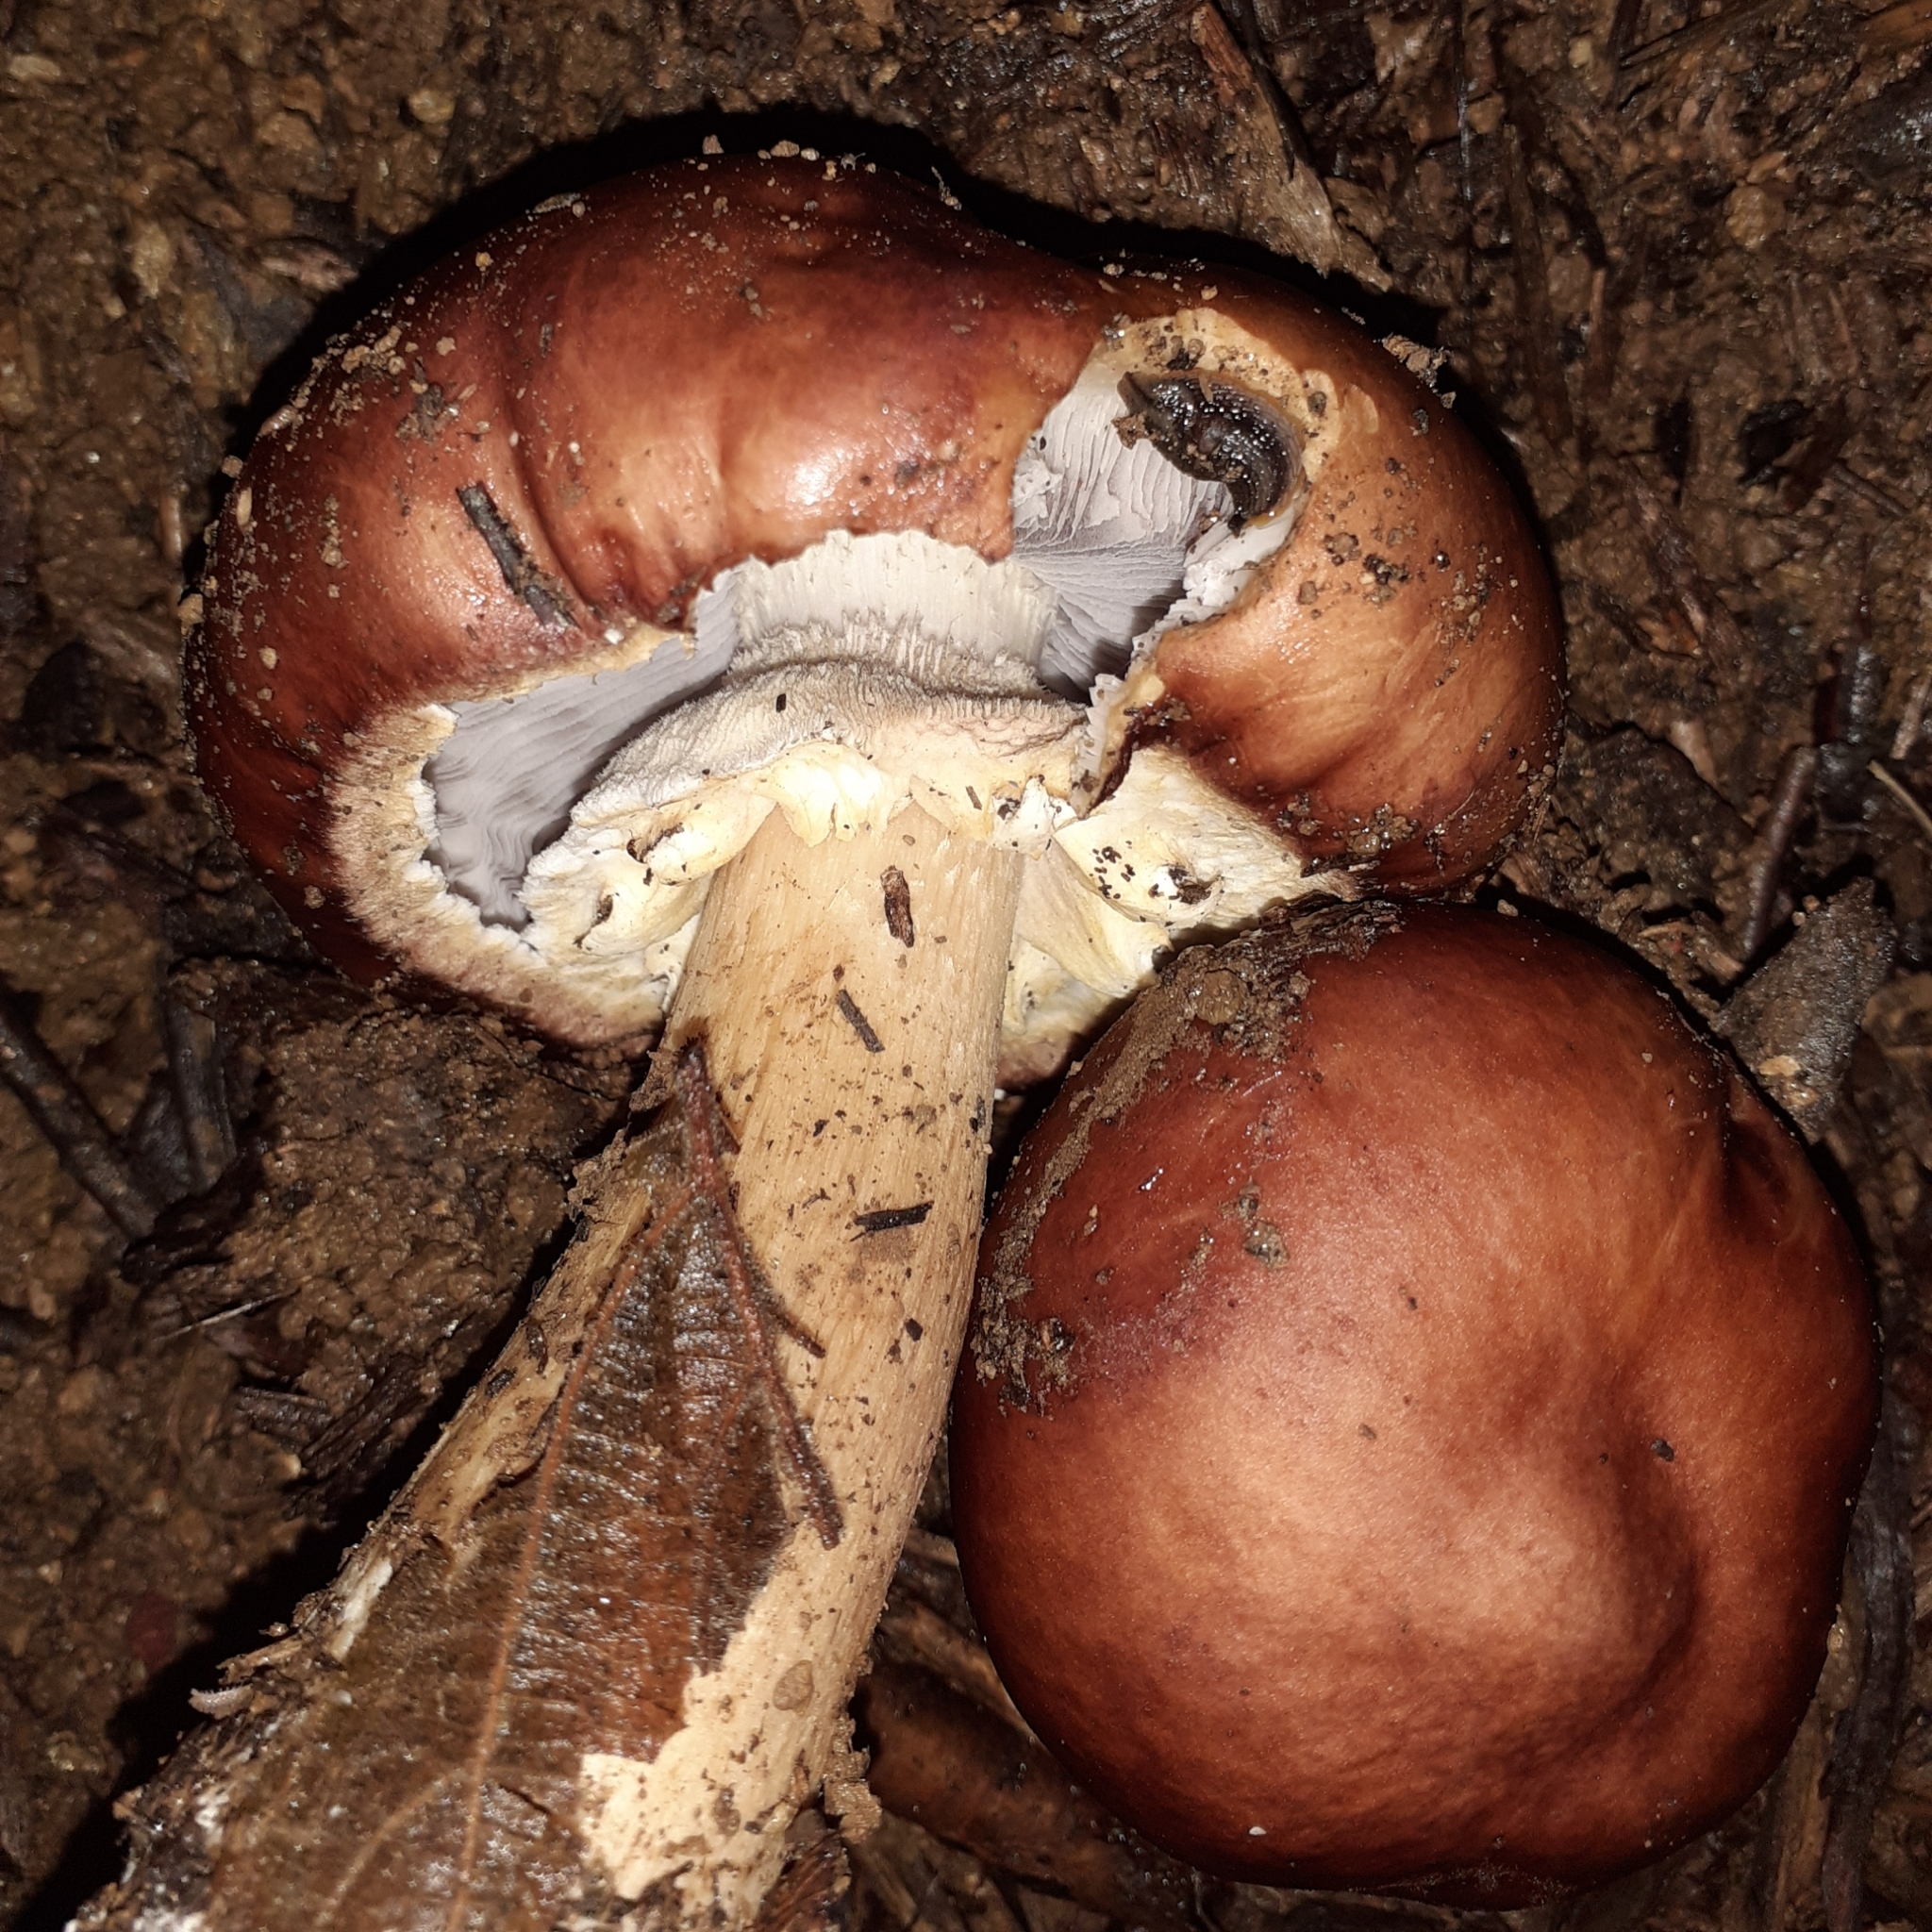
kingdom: Fungi
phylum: Basidiomycota
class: Agaricomycetes
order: Agaricales
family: Strophariaceae
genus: Stropharia
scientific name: Stropharia rugosoannulata
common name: Wine roundhead
